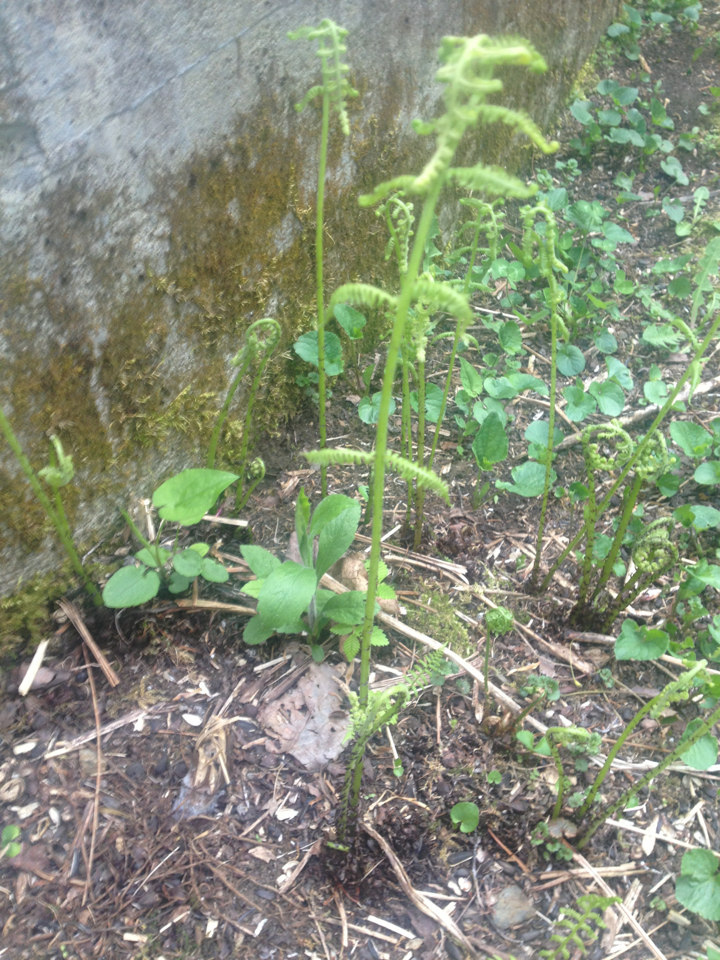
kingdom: Plantae
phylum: Tracheophyta
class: Polypodiopsida
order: Polypodiales
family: Athyriaceae
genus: Athyrium
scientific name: Athyrium angustum
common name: Northern lady fern
